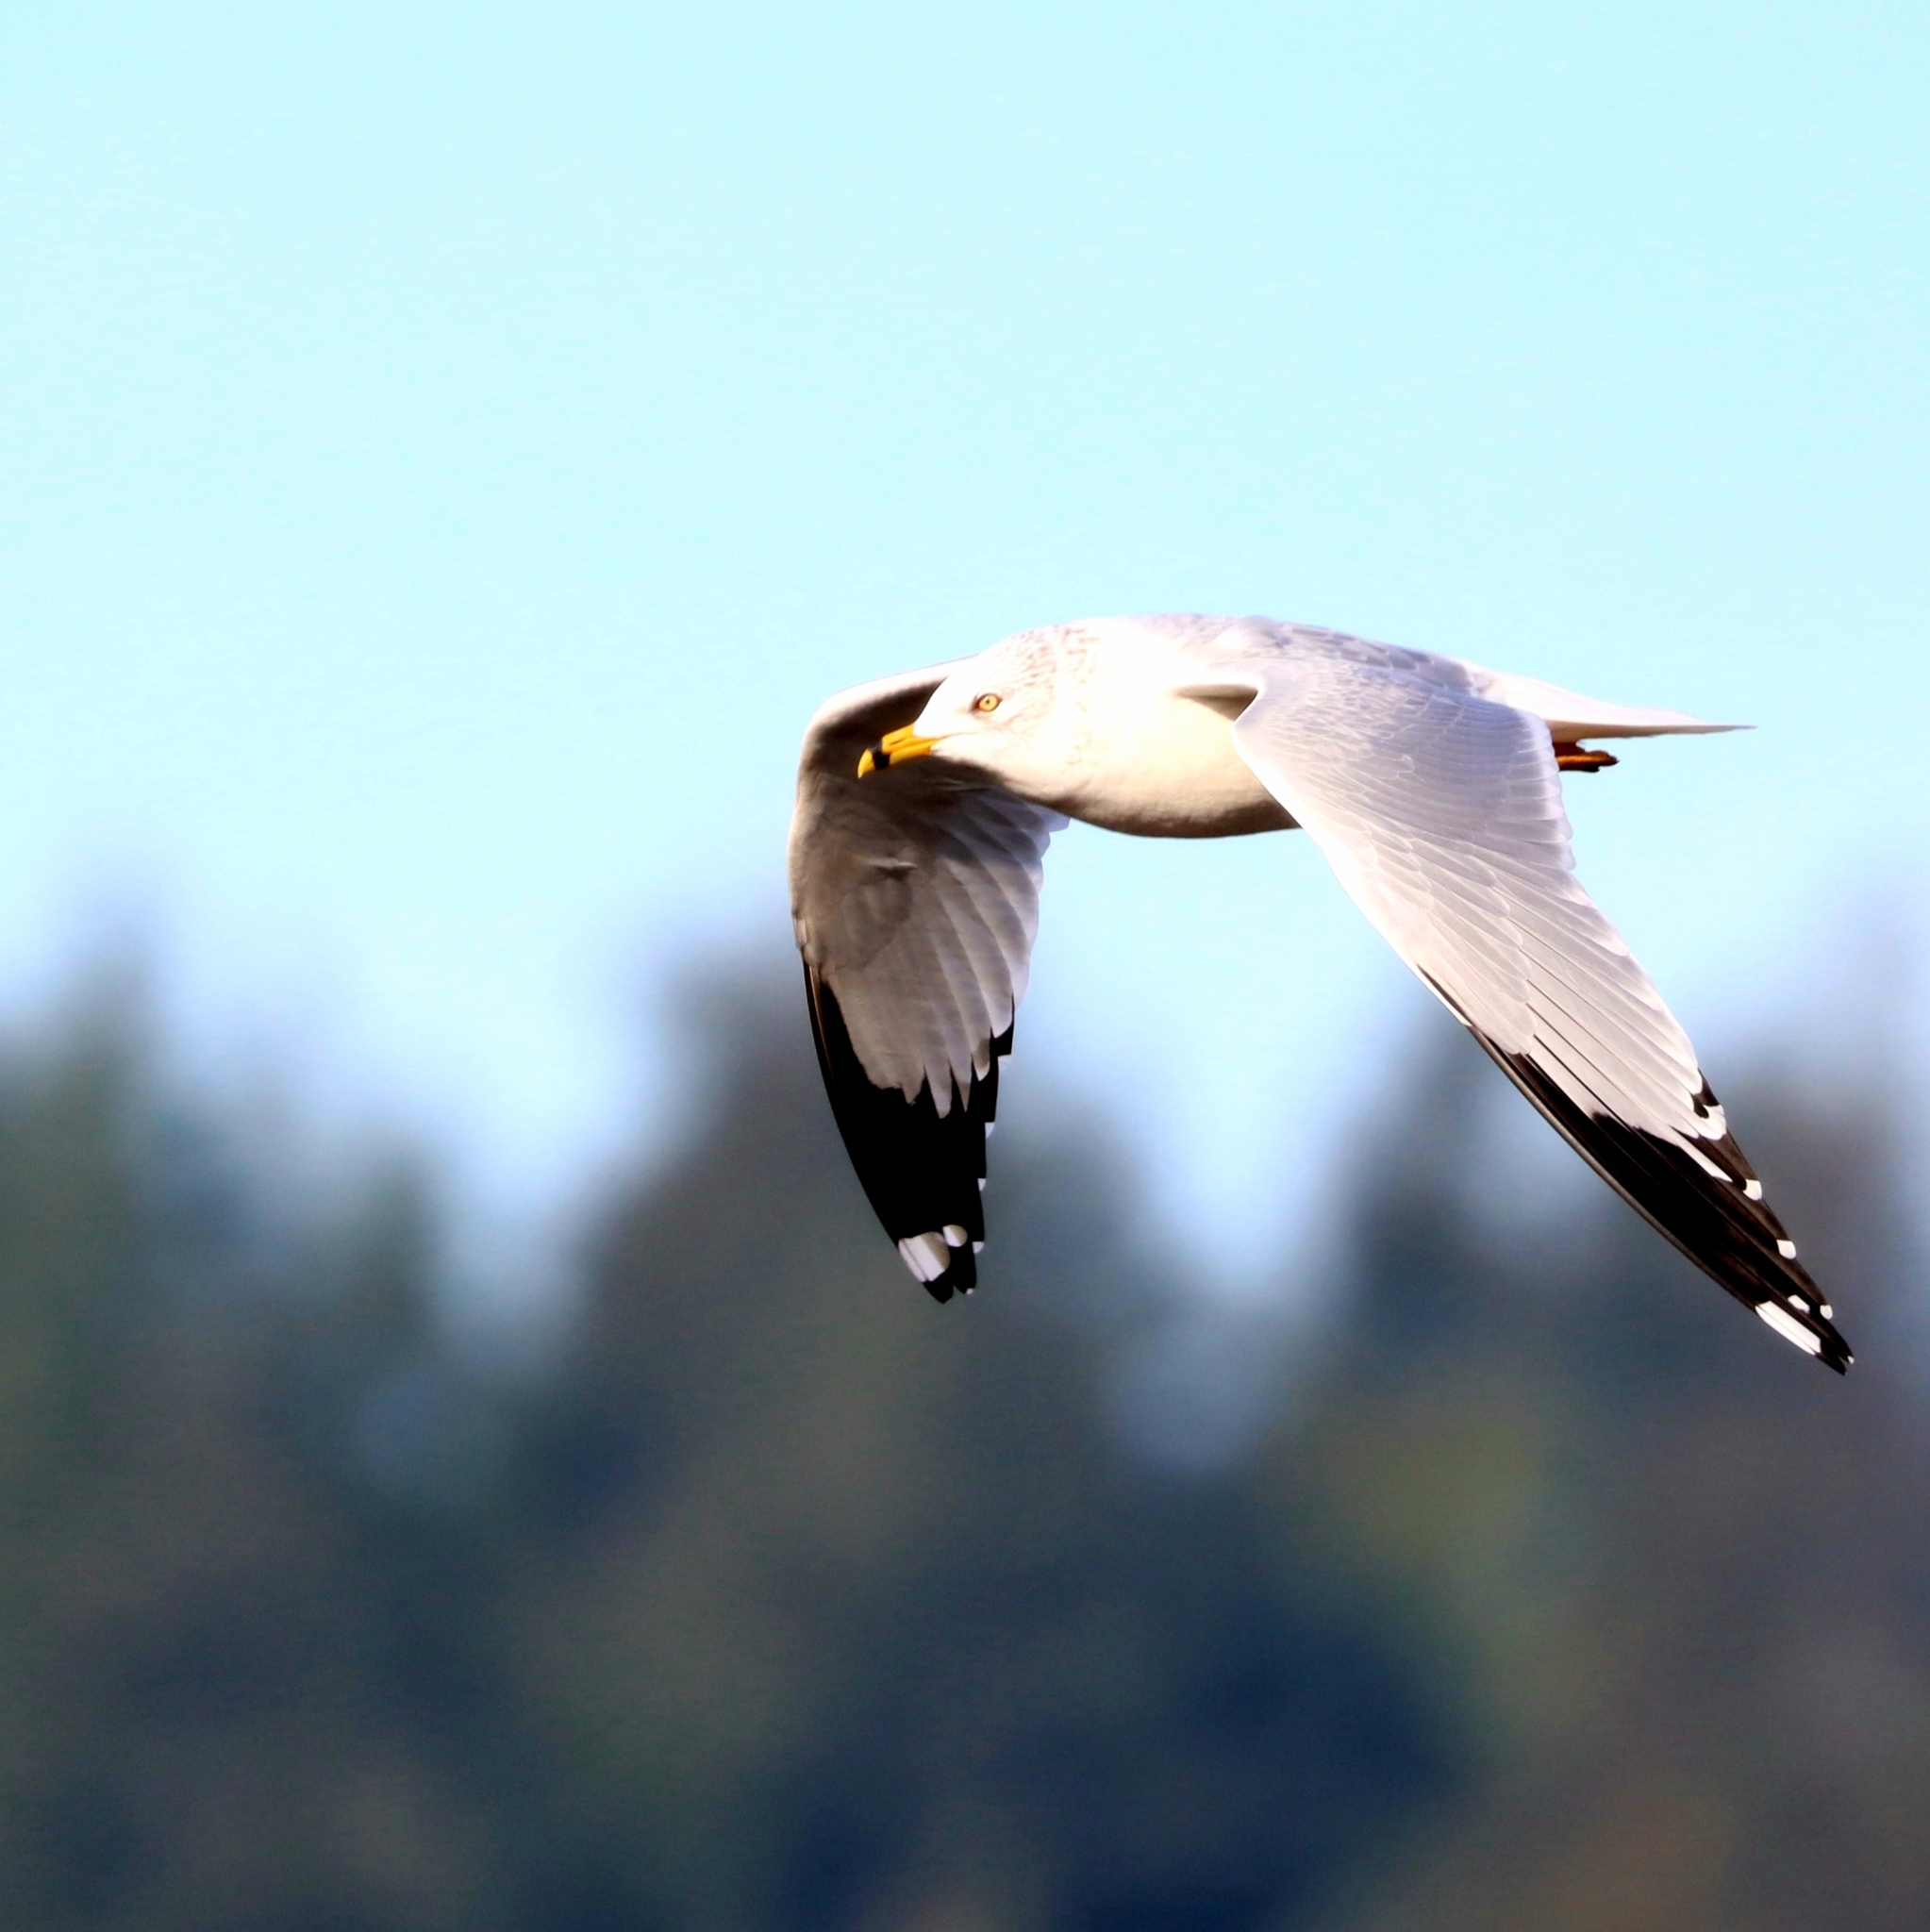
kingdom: Animalia
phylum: Chordata
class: Aves
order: Charadriiformes
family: Laridae
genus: Larus
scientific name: Larus delawarensis
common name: Ring-billed gull
